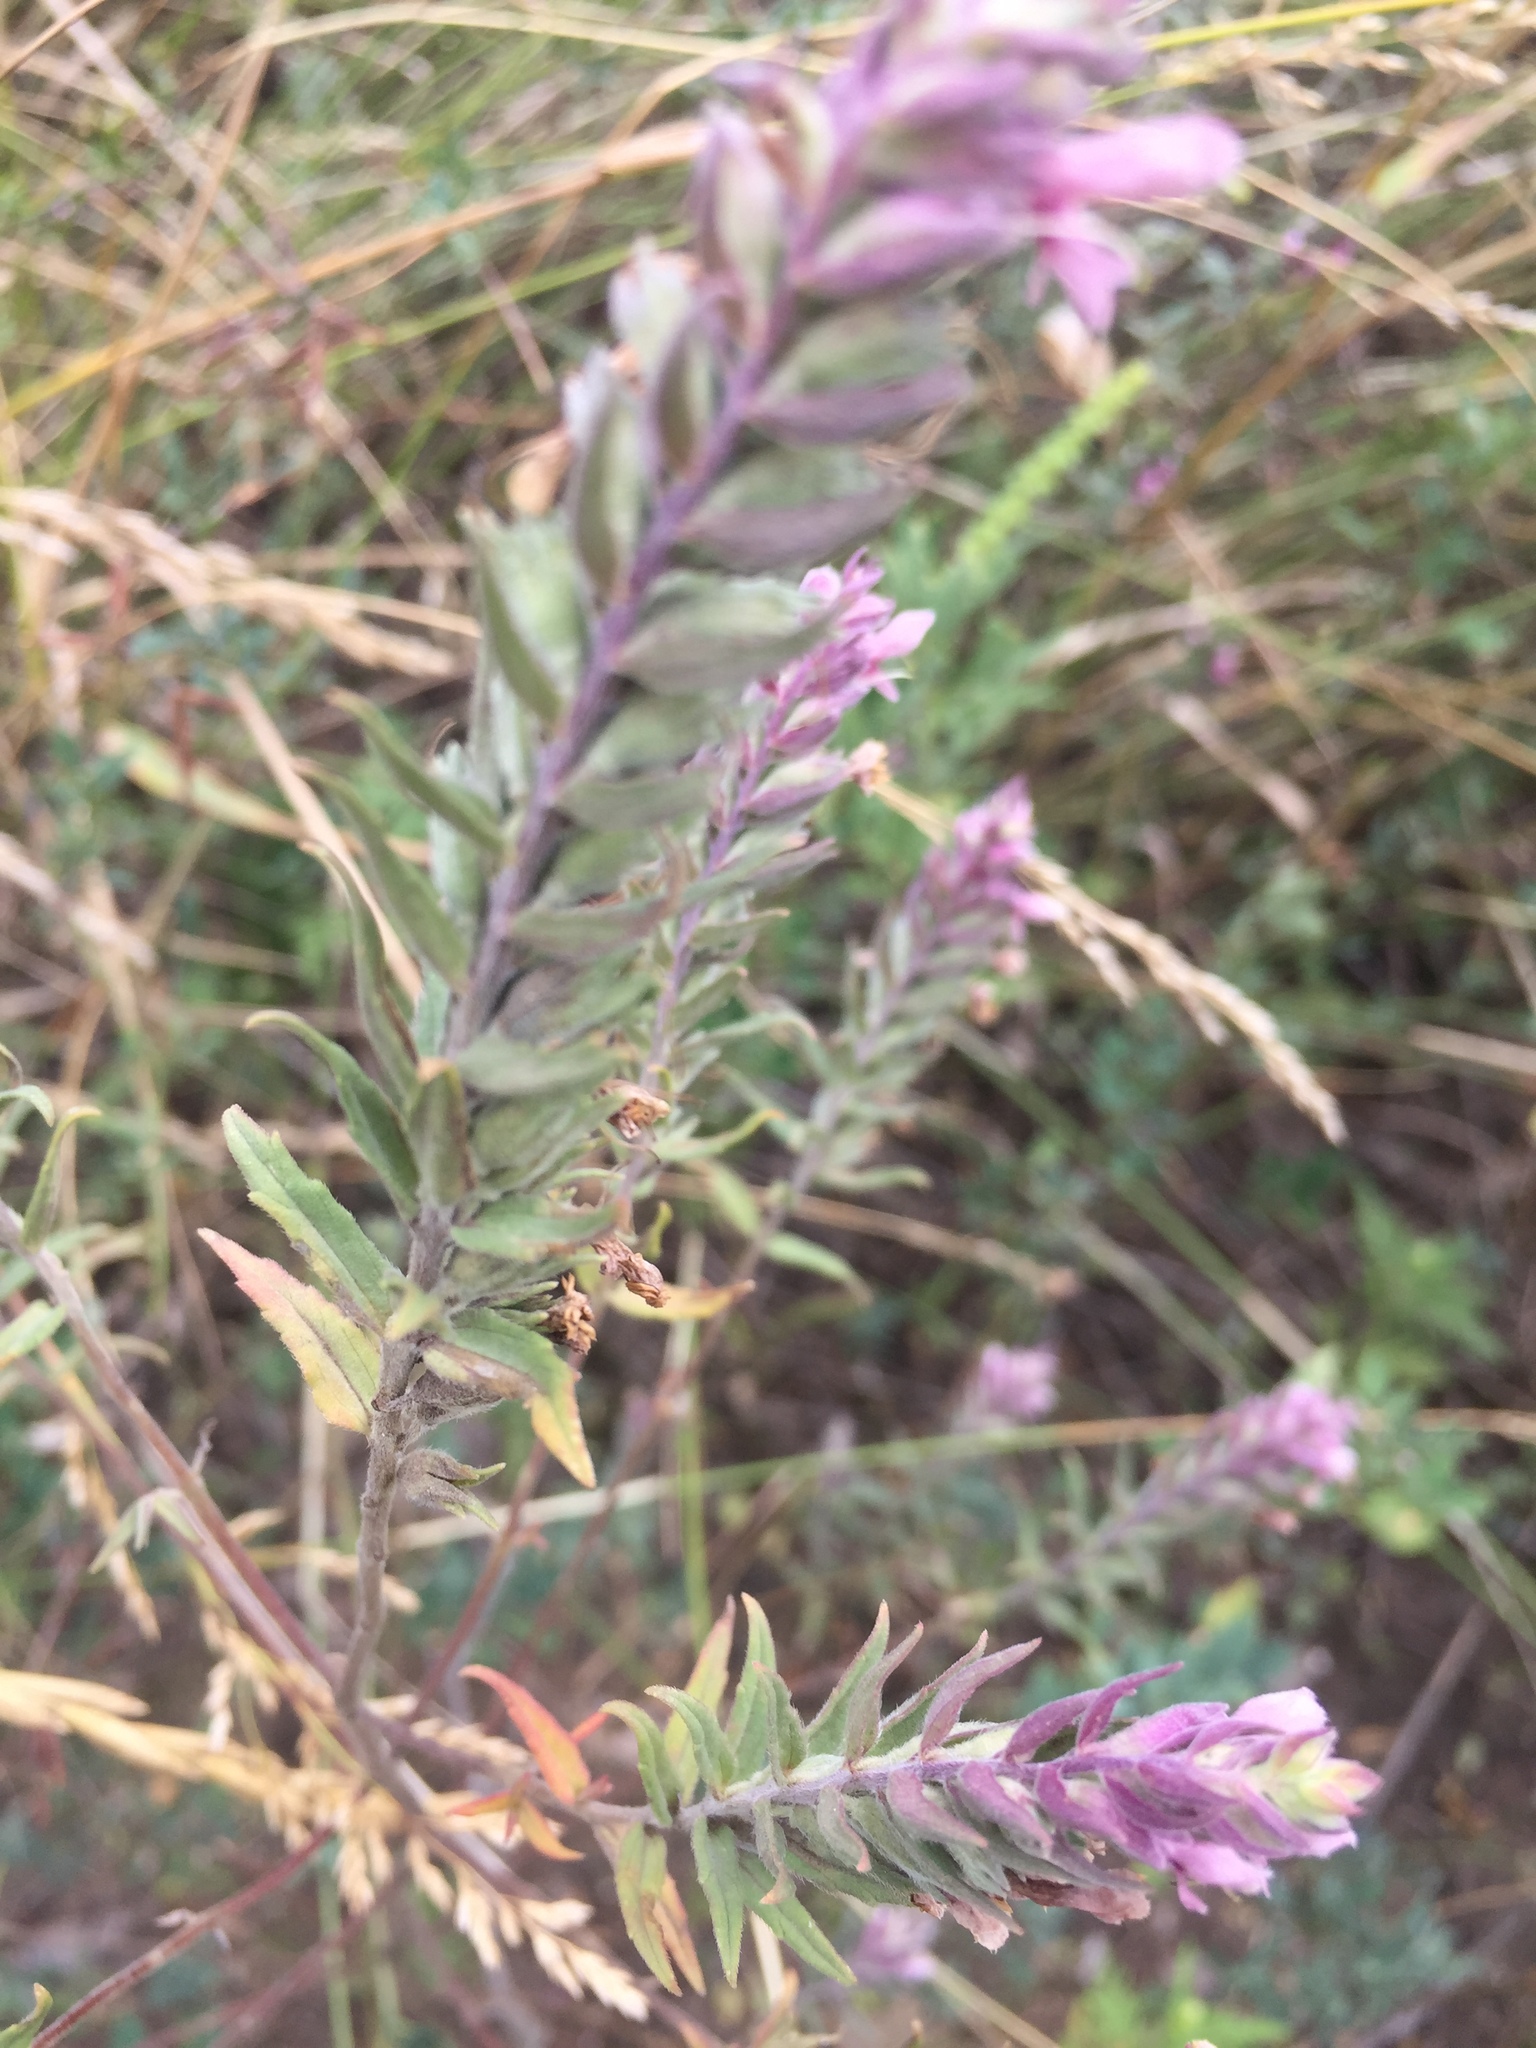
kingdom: Plantae
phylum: Tracheophyta
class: Magnoliopsida
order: Lamiales
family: Orobanchaceae
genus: Odontites
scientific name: Odontites vulgaris
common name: Broomrape
